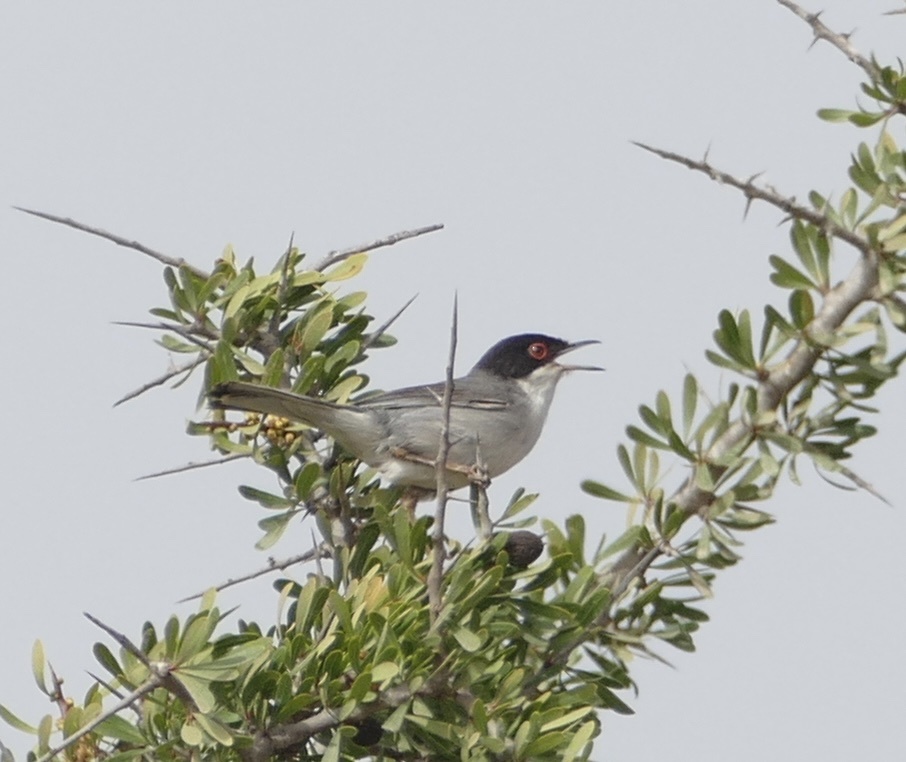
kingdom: Animalia
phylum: Chordata
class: Aves
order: Passeriformes
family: Sylviidae
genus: Curruca
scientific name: Curruca melanocephala
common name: Sardinian warbler
